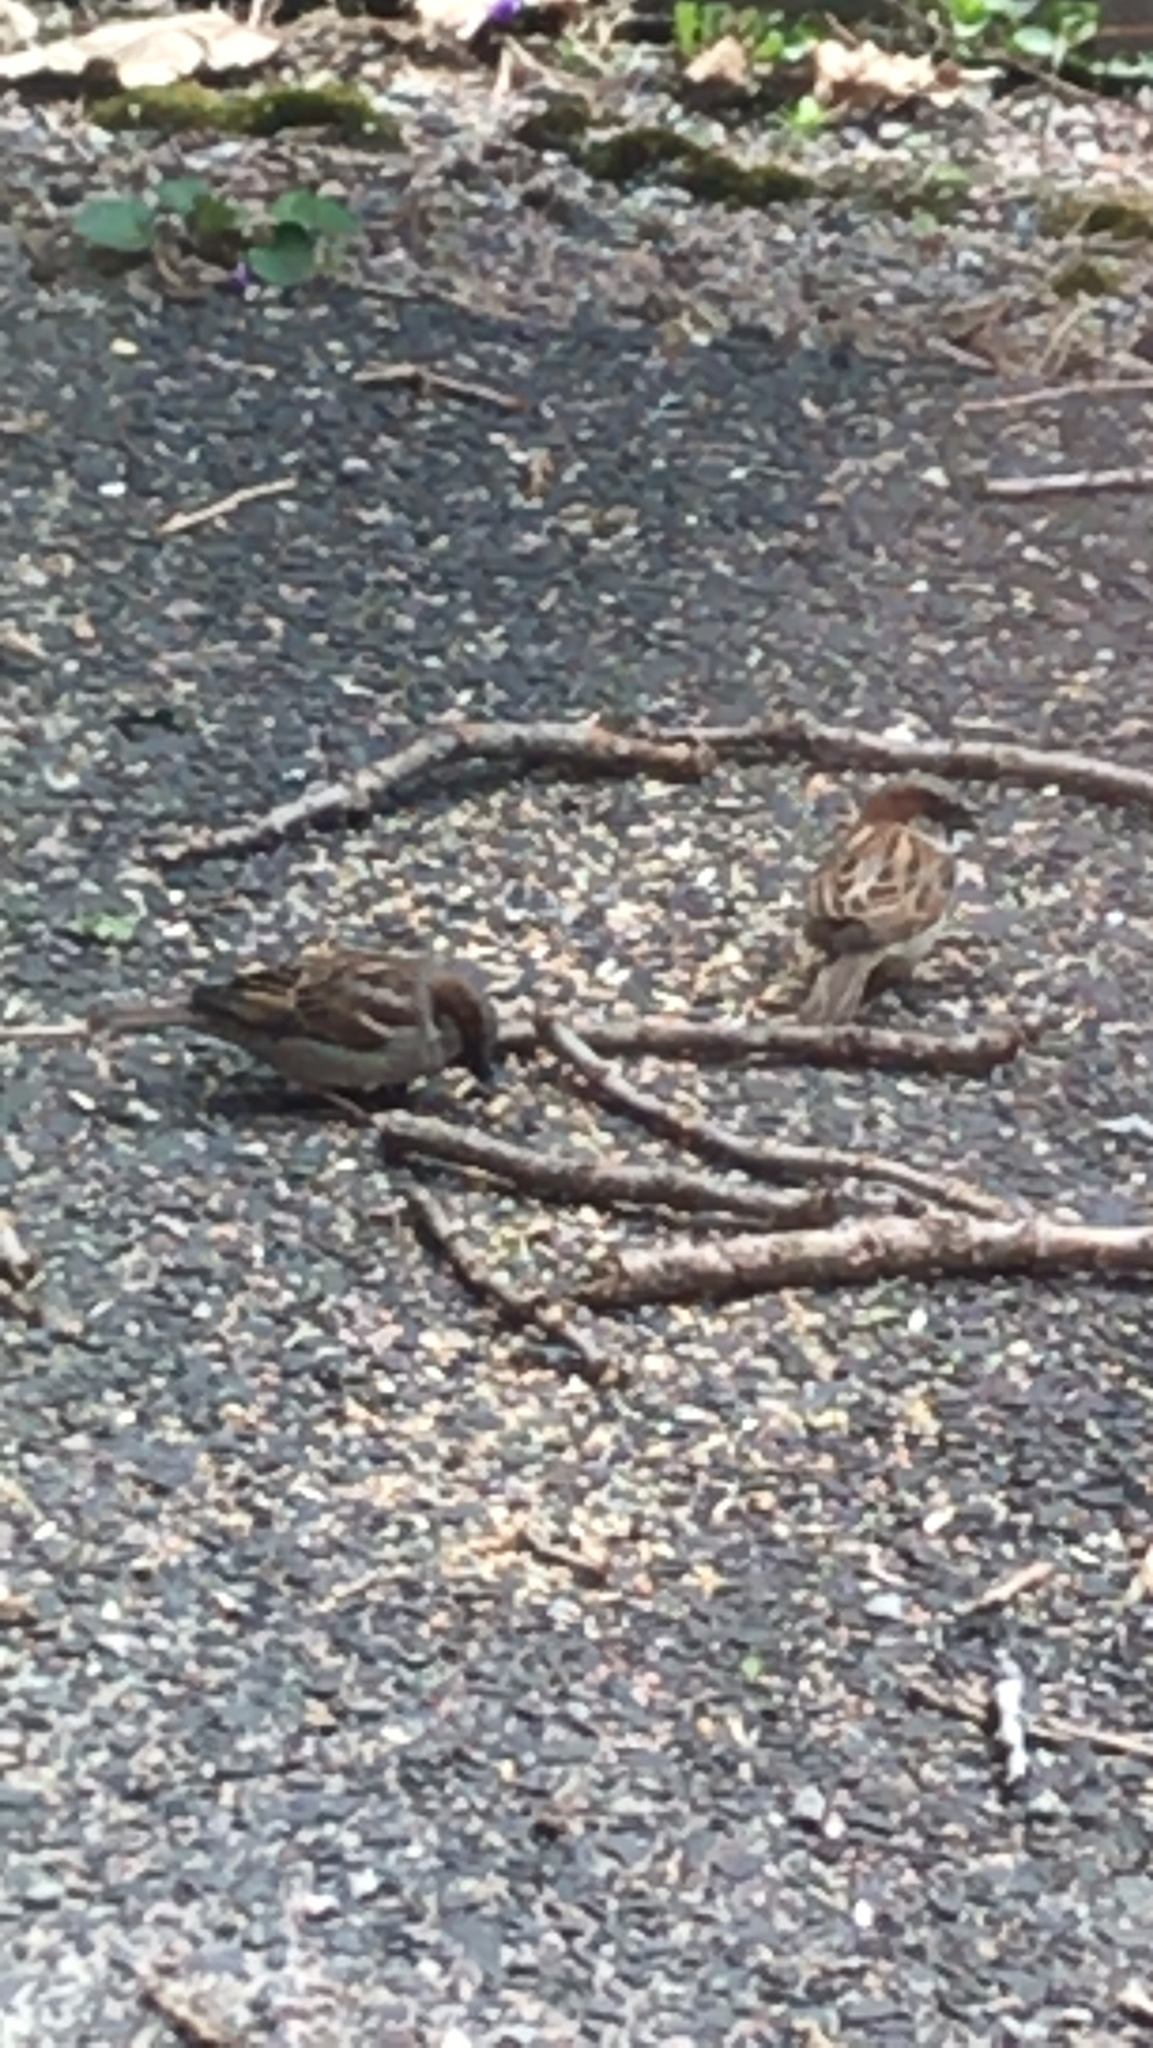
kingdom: Animalia
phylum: Chordata
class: Aves
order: Passeriformes
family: Passeridae
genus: Passer
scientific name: Passer domesticus
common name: House sparrow
